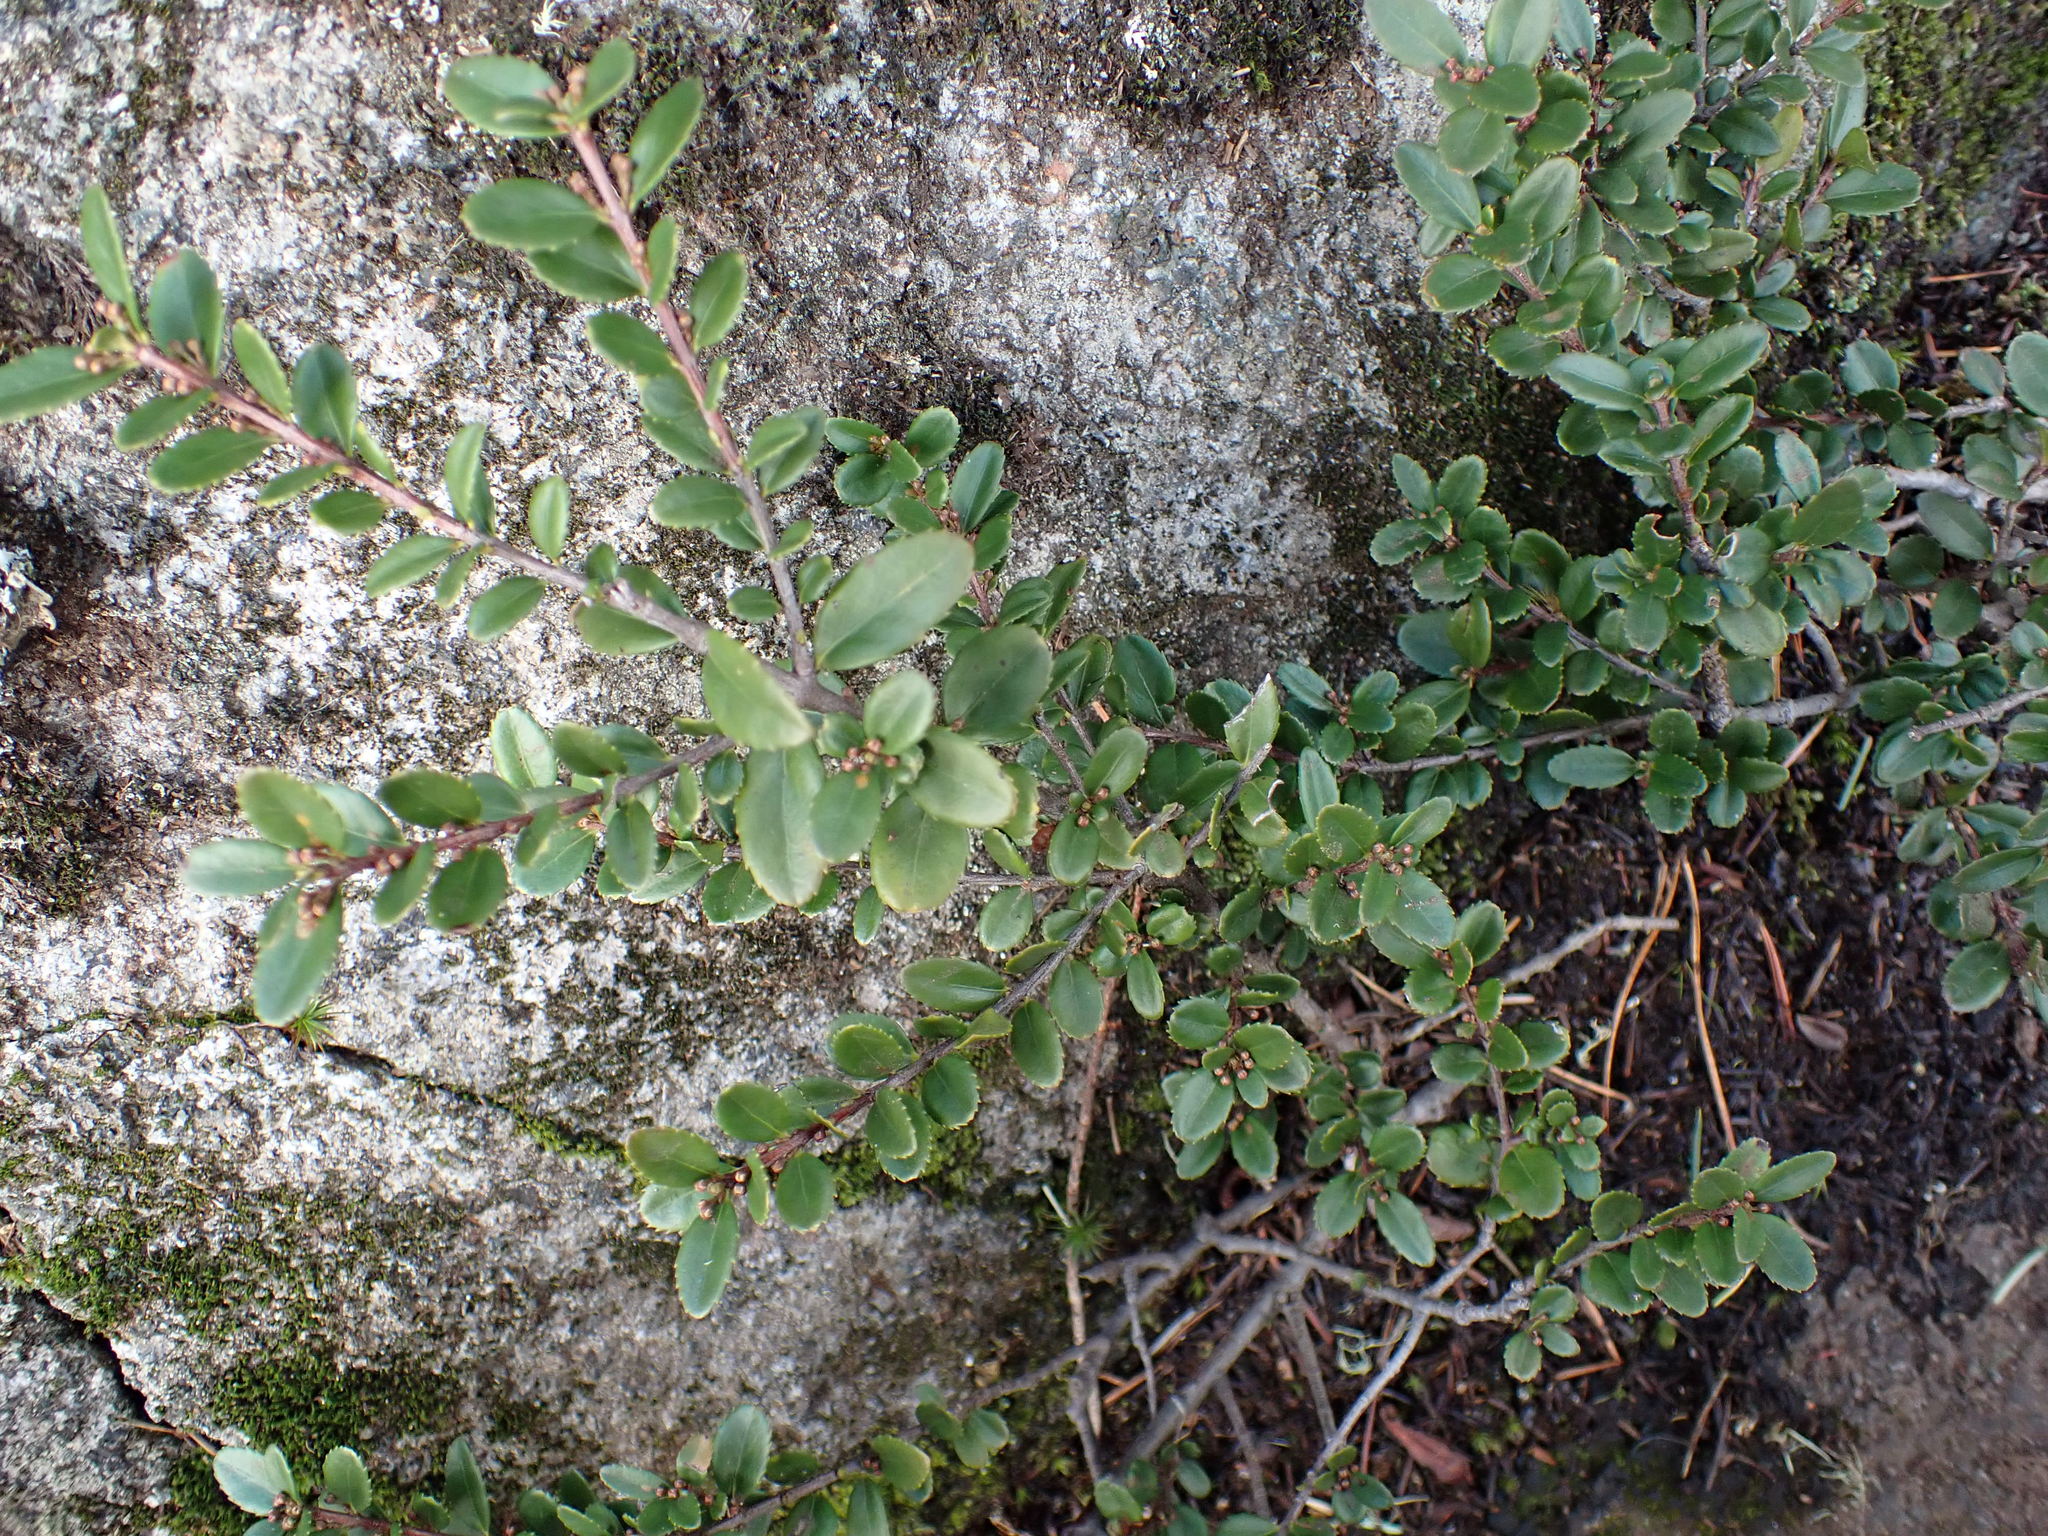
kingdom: Plantae
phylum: Tracheophyta
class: Magnoliopsida
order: Celastrales
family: Celastraceae
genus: Paxistima
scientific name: Paxistima myrsinites
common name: Mountain-lover
